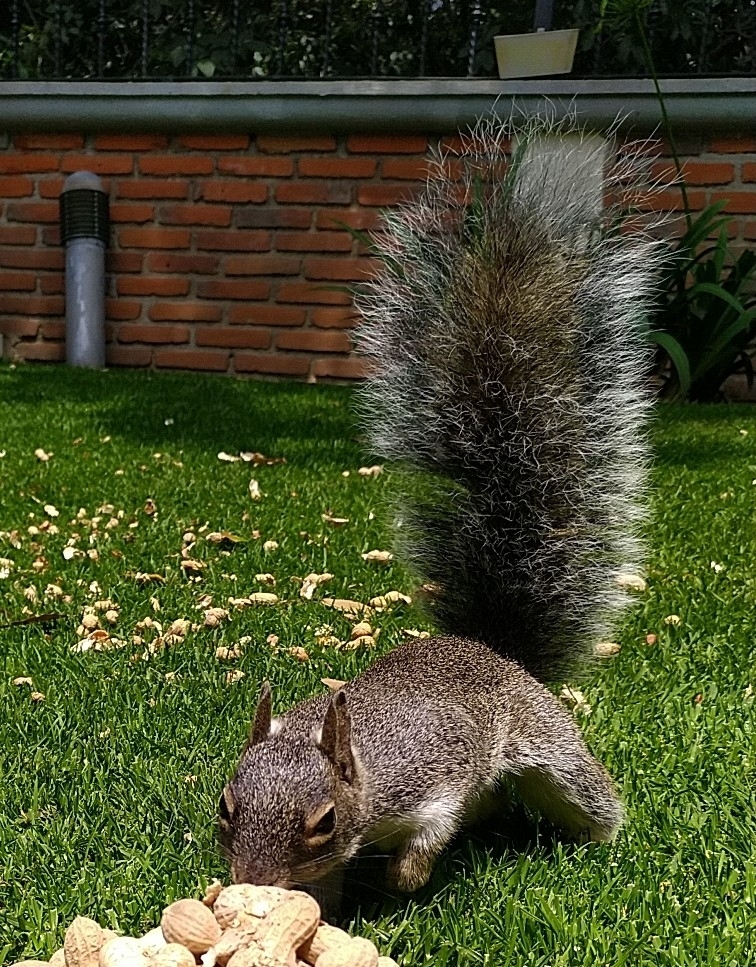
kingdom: Animalia
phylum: Chordata
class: Mammalia
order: Rodentia
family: Sciuridae
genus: Sciurus
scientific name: Sciurus oculatus
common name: Peters's squirrel
